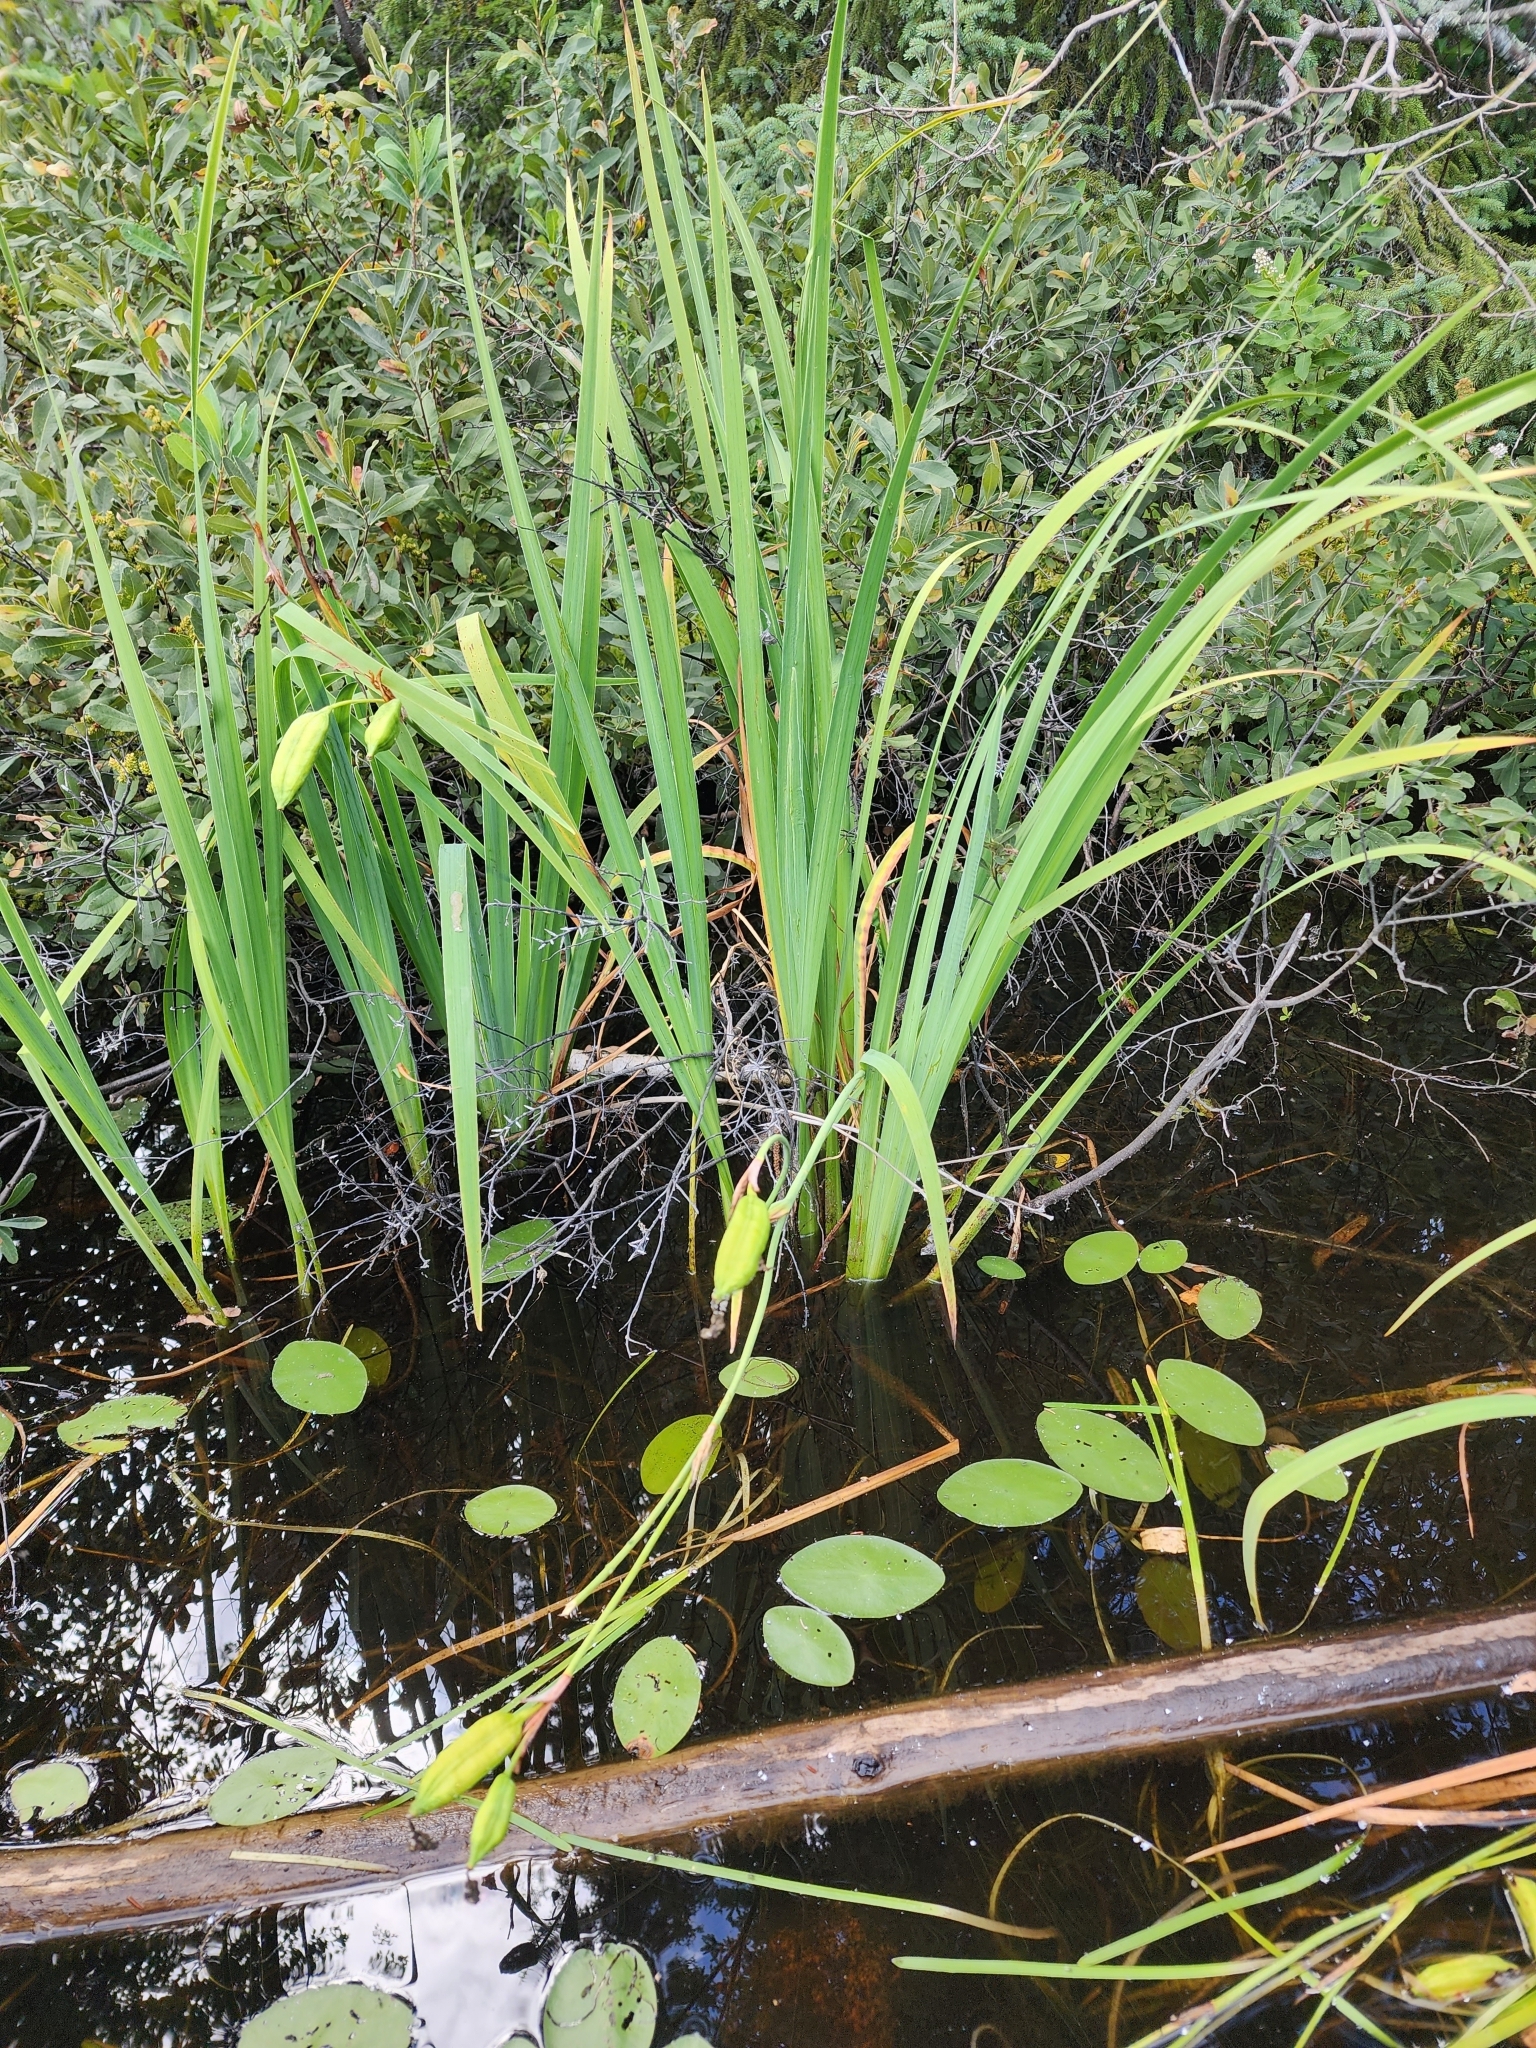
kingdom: Plantae
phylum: Tracheophyta
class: Liliopsida
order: Asparagales
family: Iridaceae
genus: Iris
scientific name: Iris versicolor
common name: Purple iris
